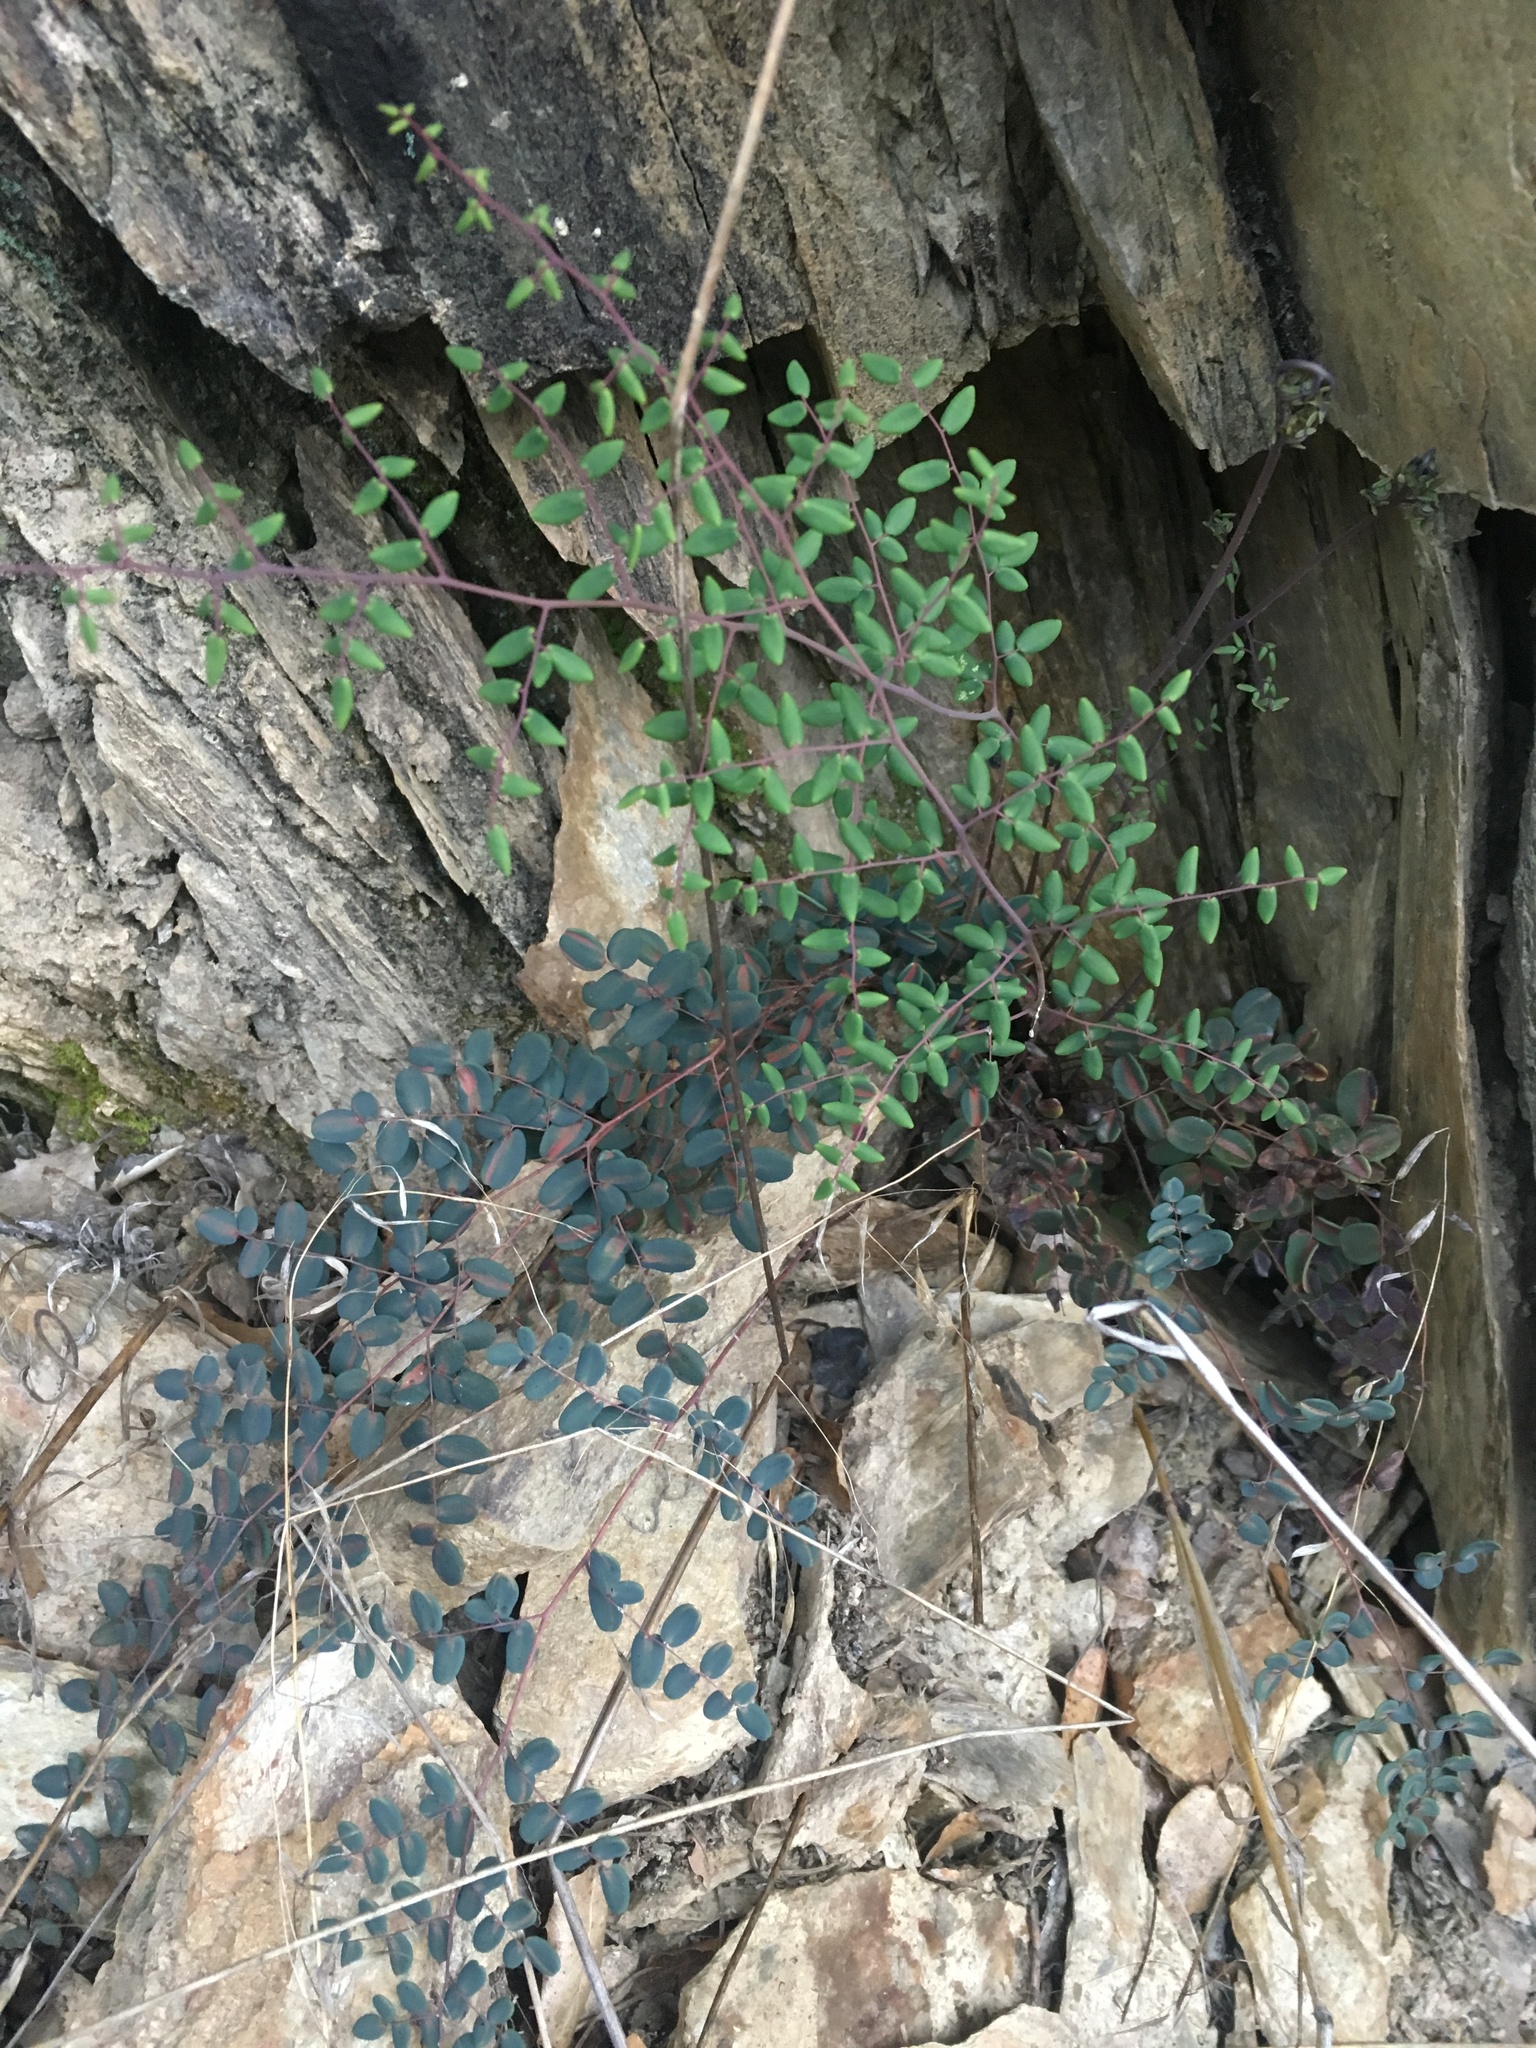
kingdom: Plantae
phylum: Tracheophyta
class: Polypodiopsida
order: Polypodiales
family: Pteridaceae
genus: Pellaea
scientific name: Pellaea andromedifolia
